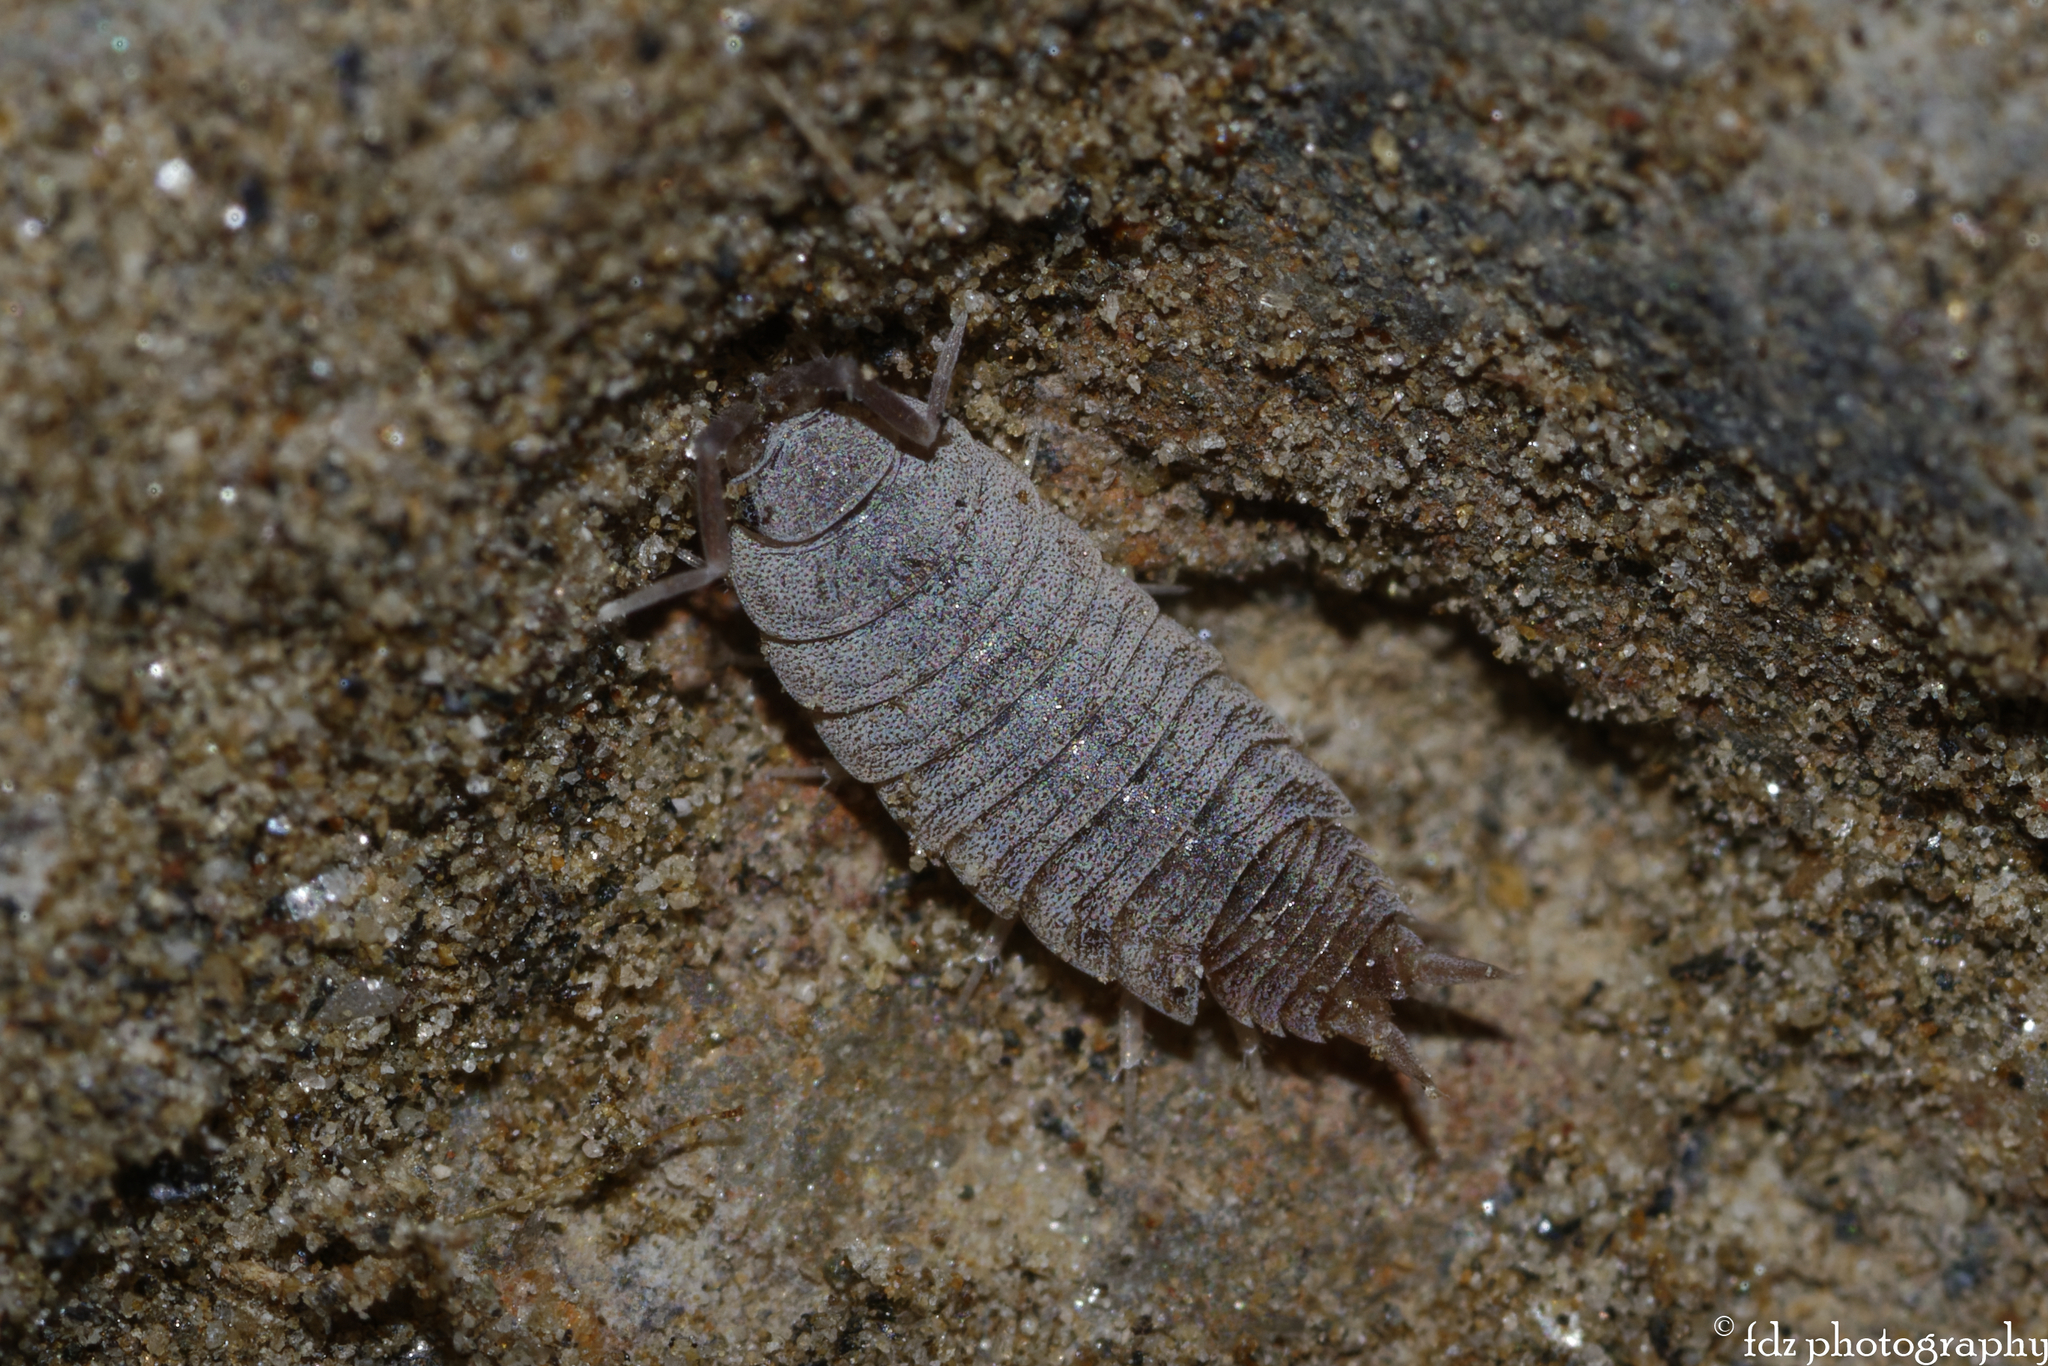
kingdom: Animalia
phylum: Arthropoda
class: Malacostraca
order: Isopoda
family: Porcellionidae
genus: Porcellionides
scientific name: Porcellionides pruinosus
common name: Plum woodlouse
